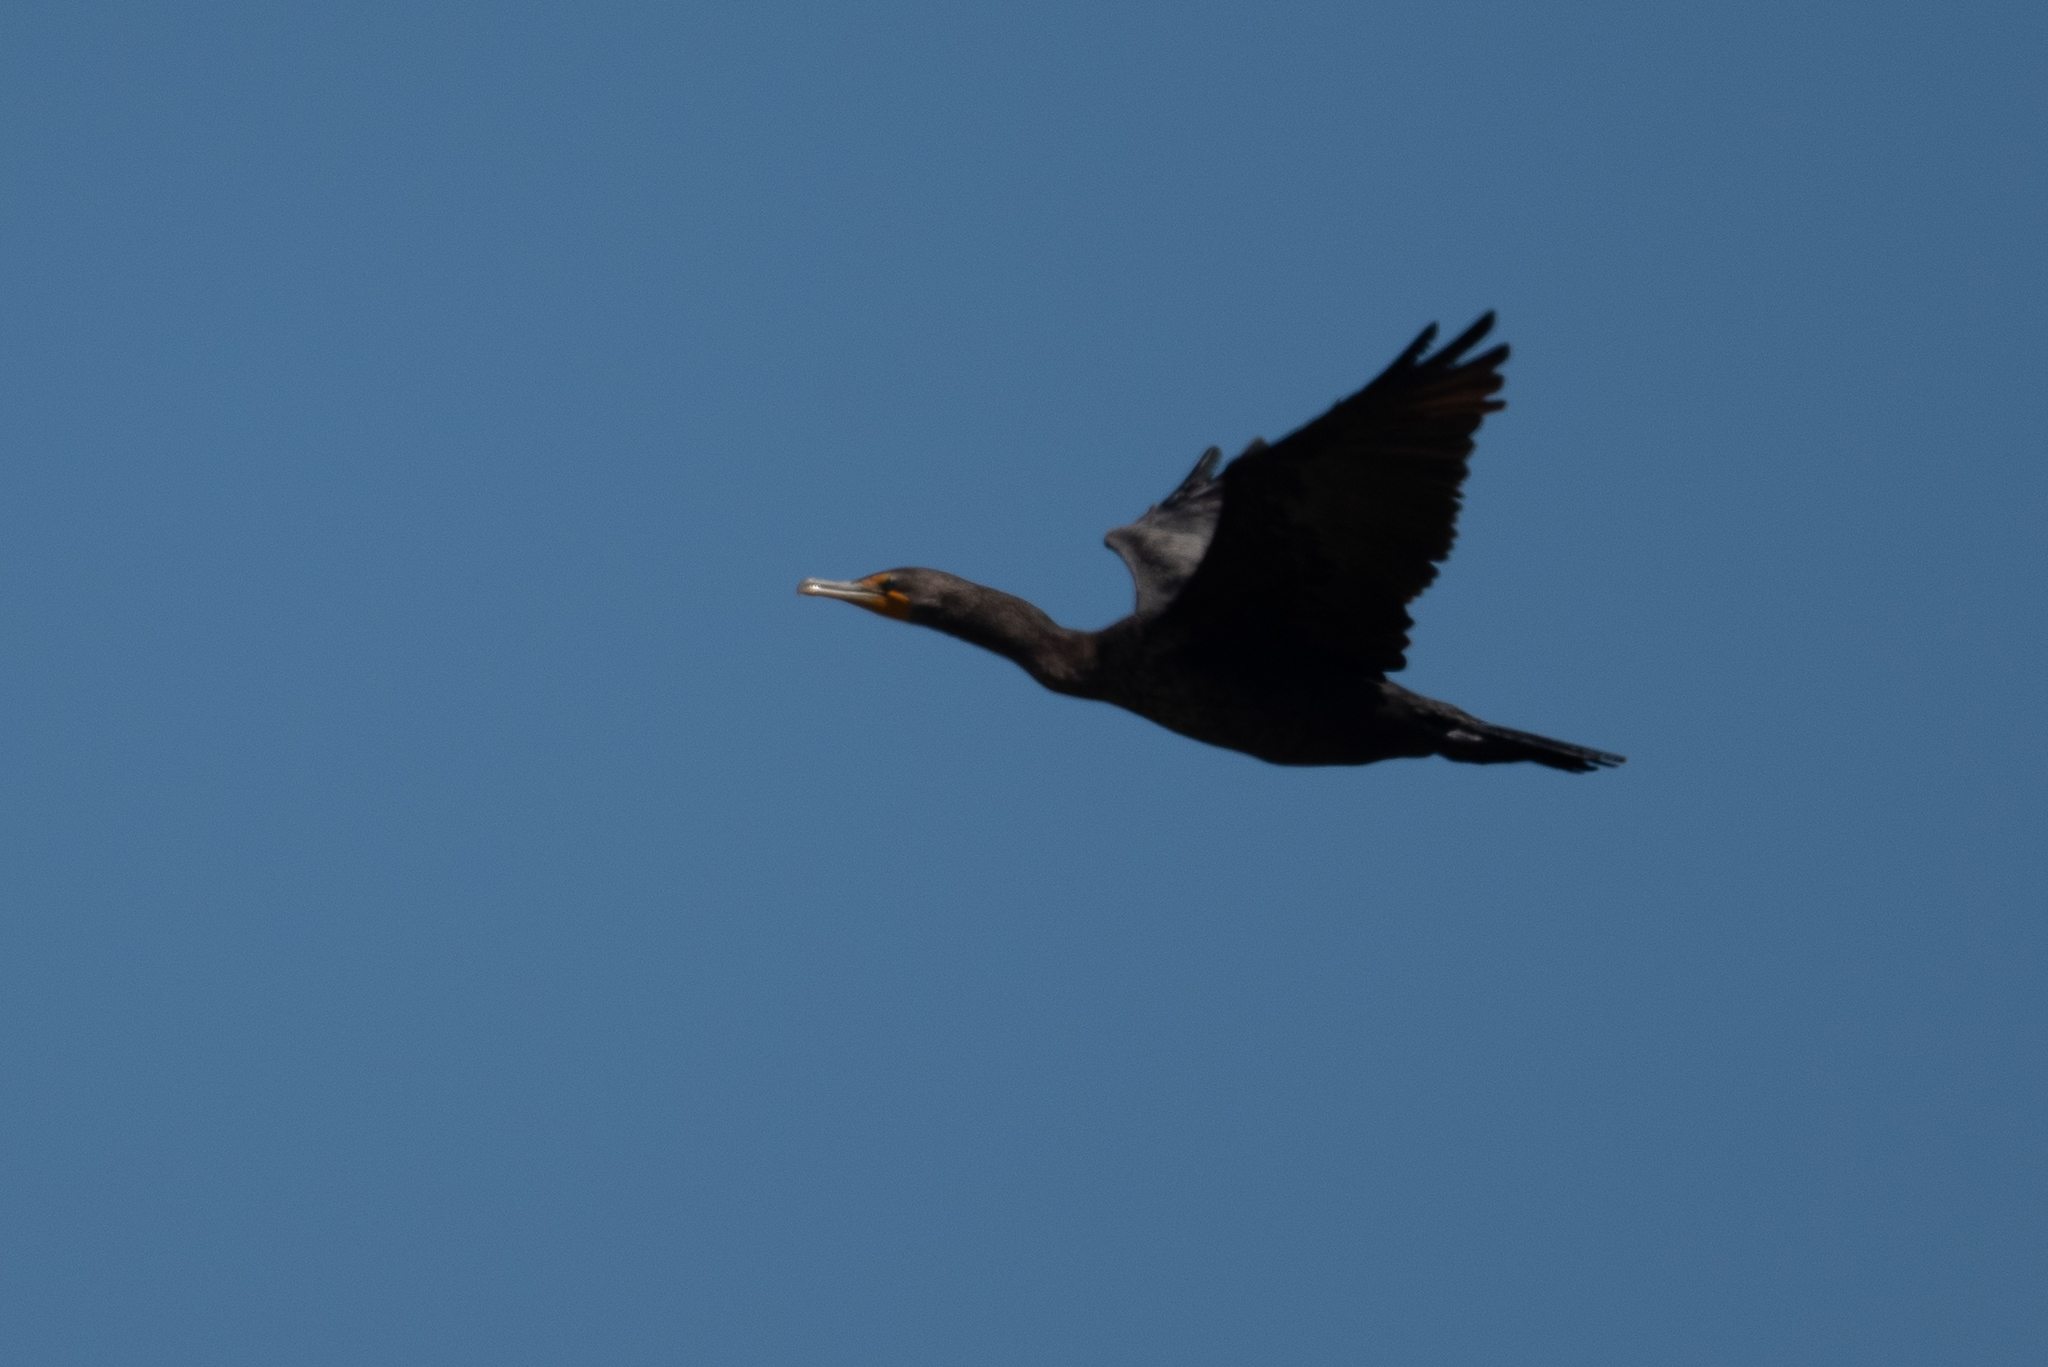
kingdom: Animalia
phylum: Chordata
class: Aves
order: Suliformes
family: Phalacrocoracidae
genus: Phalacrocorax
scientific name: Phalacrocorax auritus
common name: Double-crested cormorant
